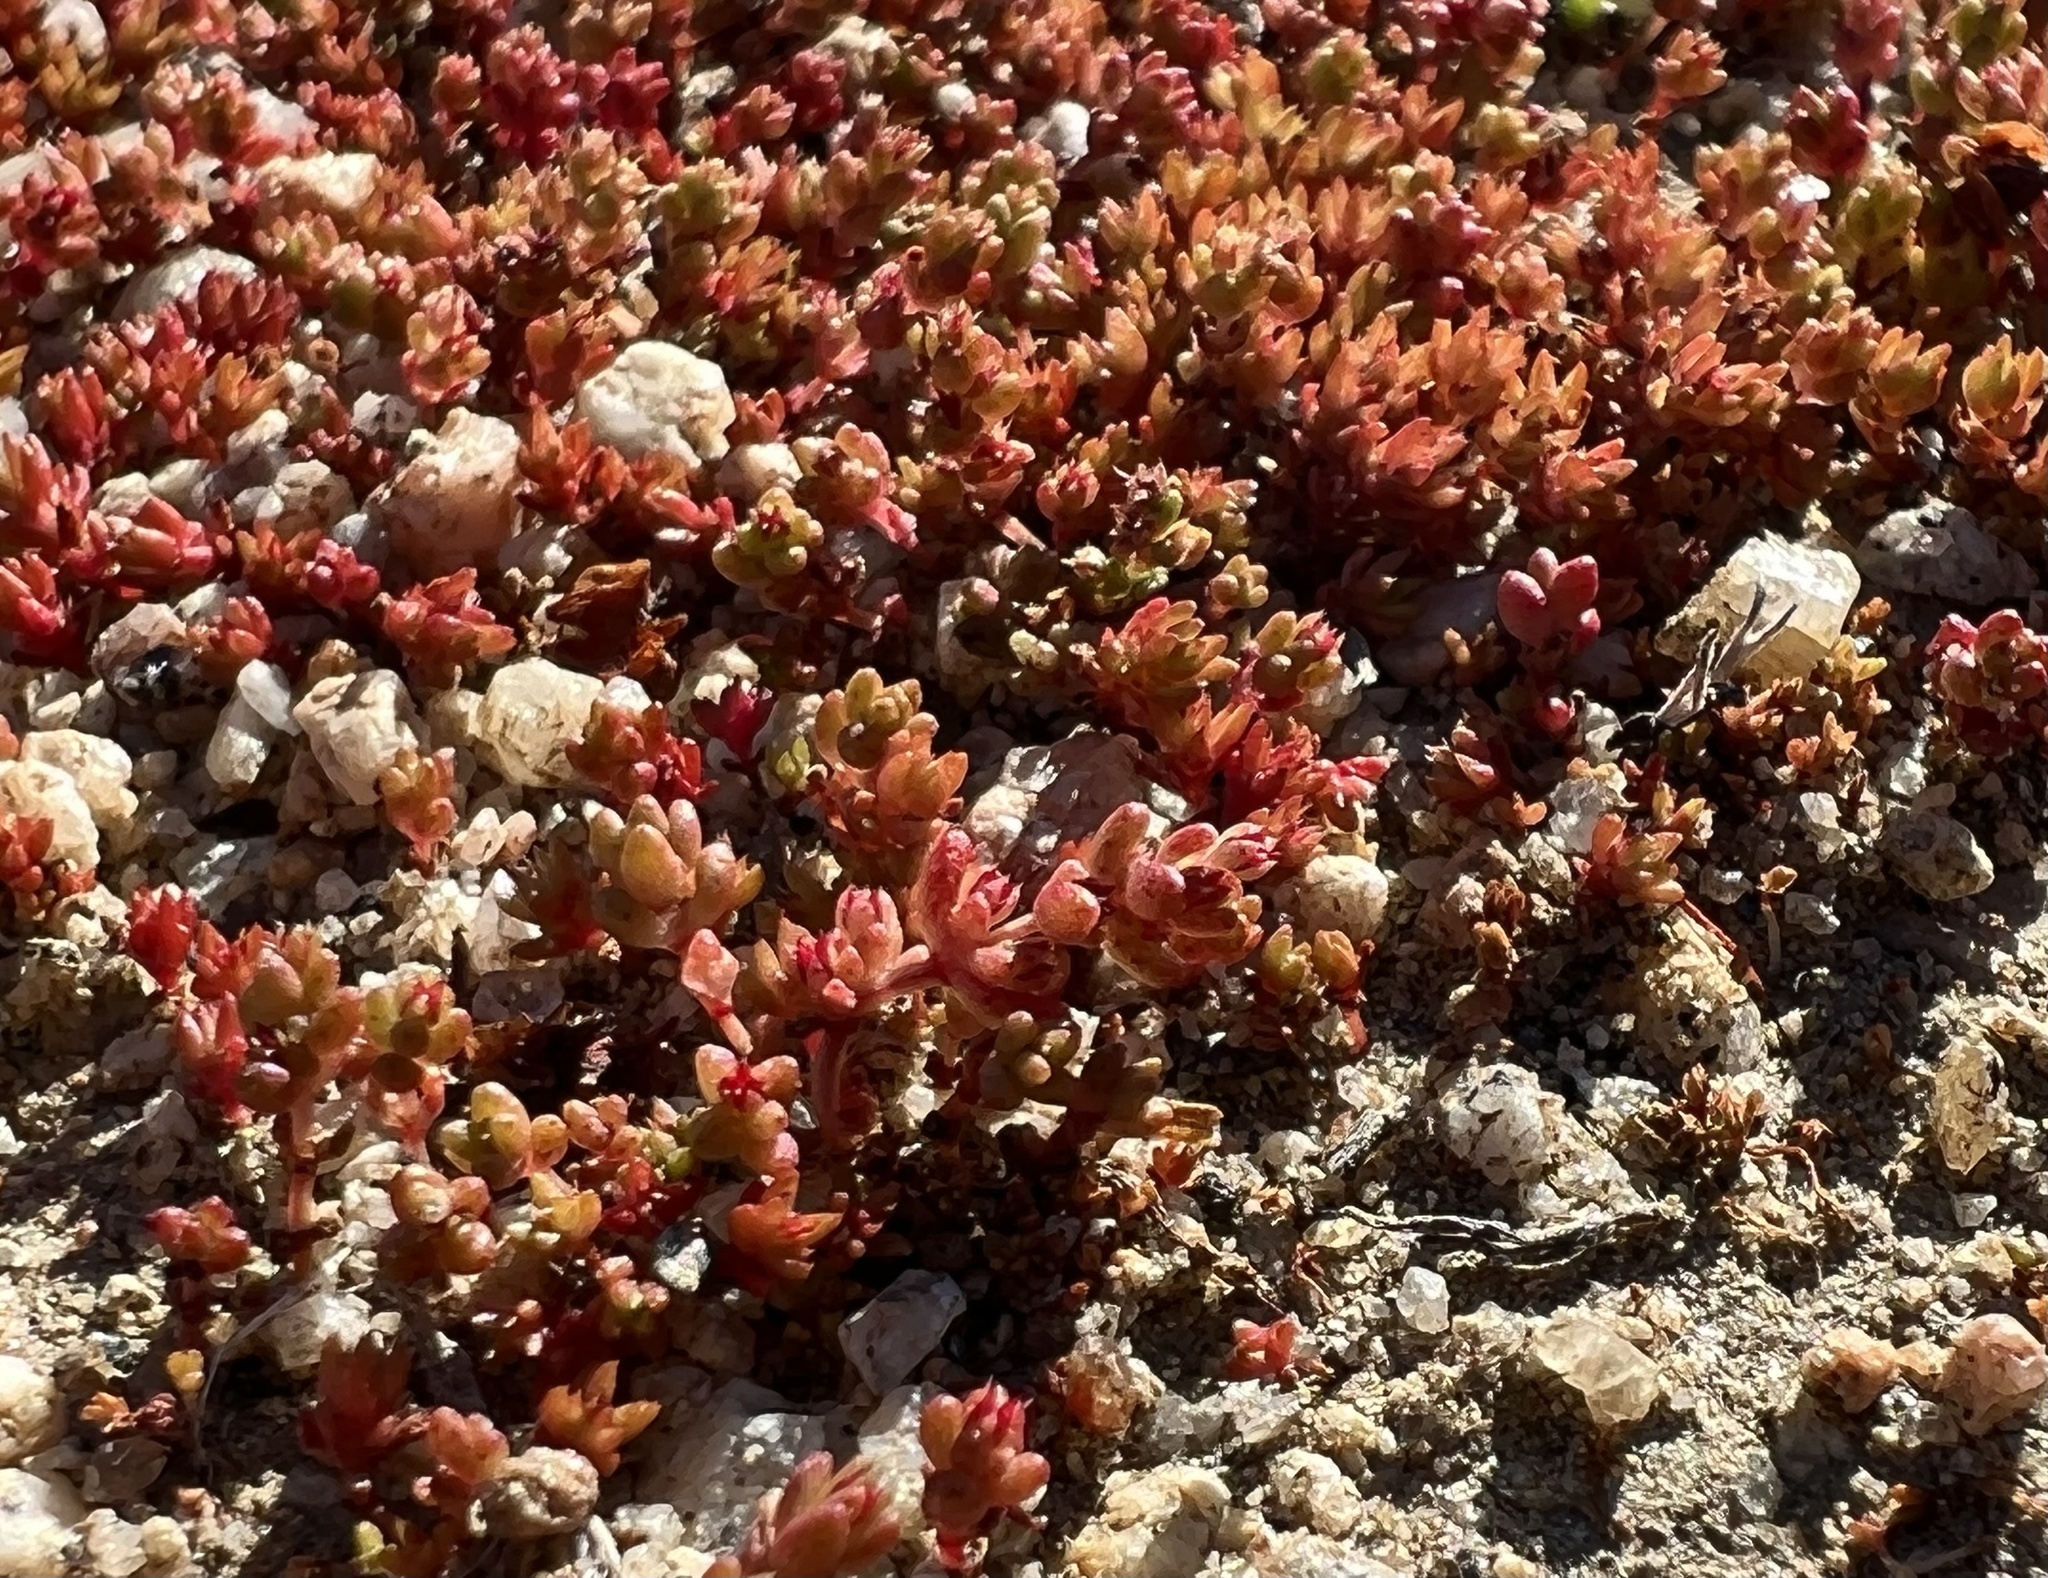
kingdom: Plantae
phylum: Tracheophyta
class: Magnoliopsida
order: Saxifragales
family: Crassulaceae
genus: Crassula
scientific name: Crassula connata
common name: Erect pygmyweed
